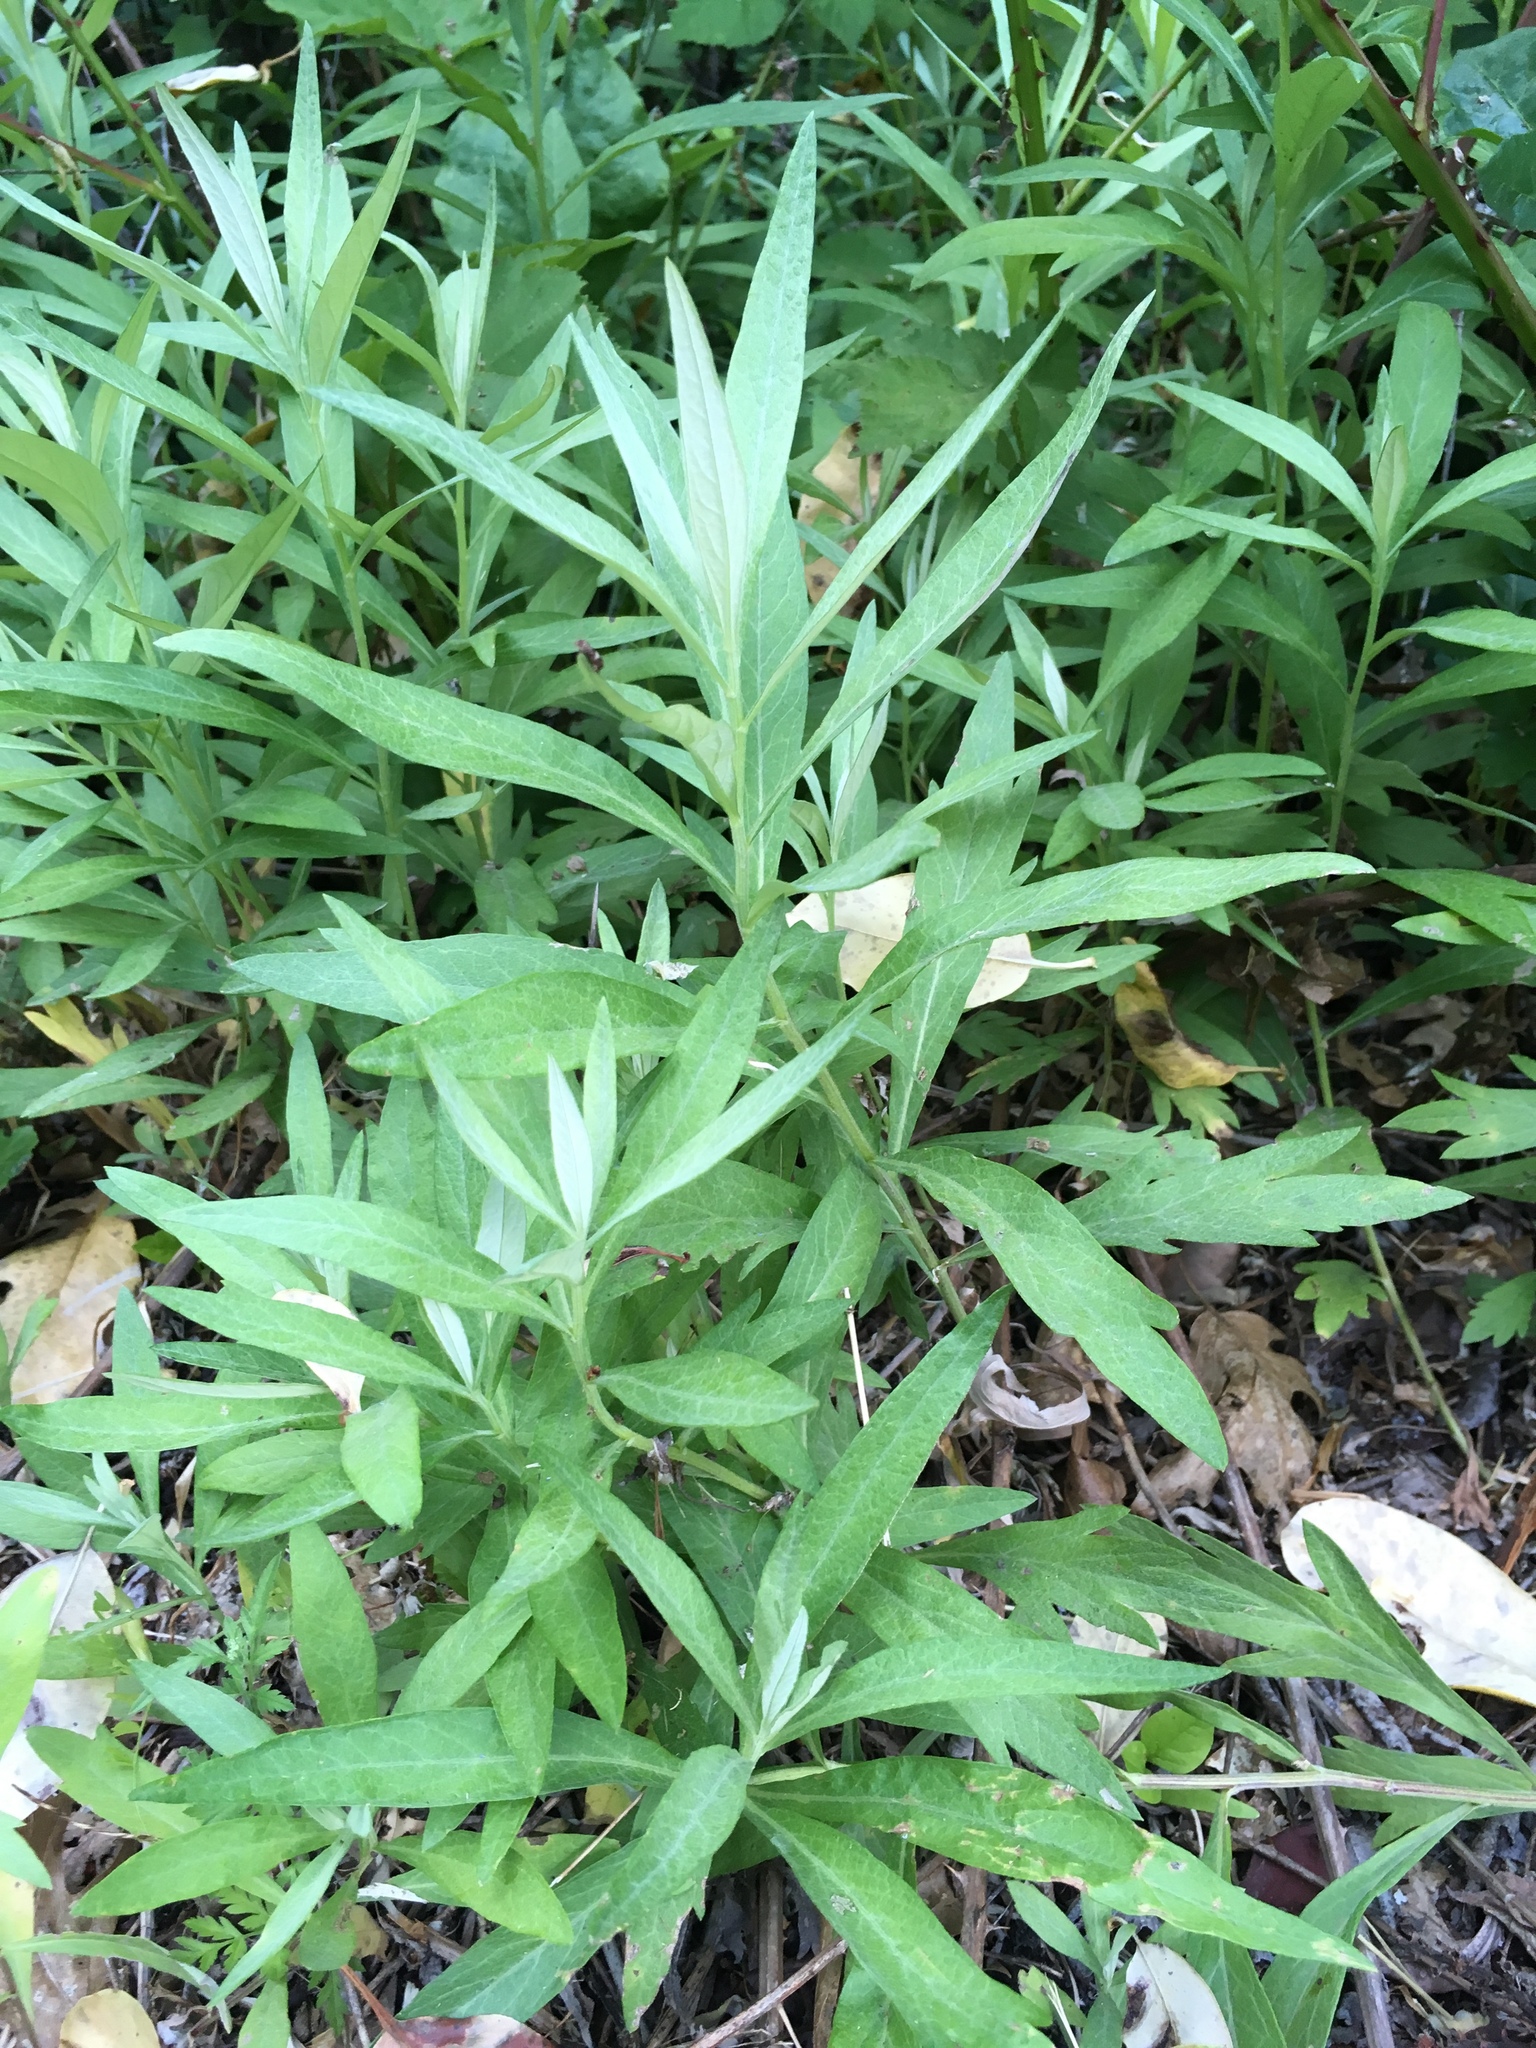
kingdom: Plantae
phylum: Tracheophyta
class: Magnoliopsida
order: Asterales
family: Asteraceae
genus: Artemisia
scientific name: Artemisia douglasiana
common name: Northwest mugwort
